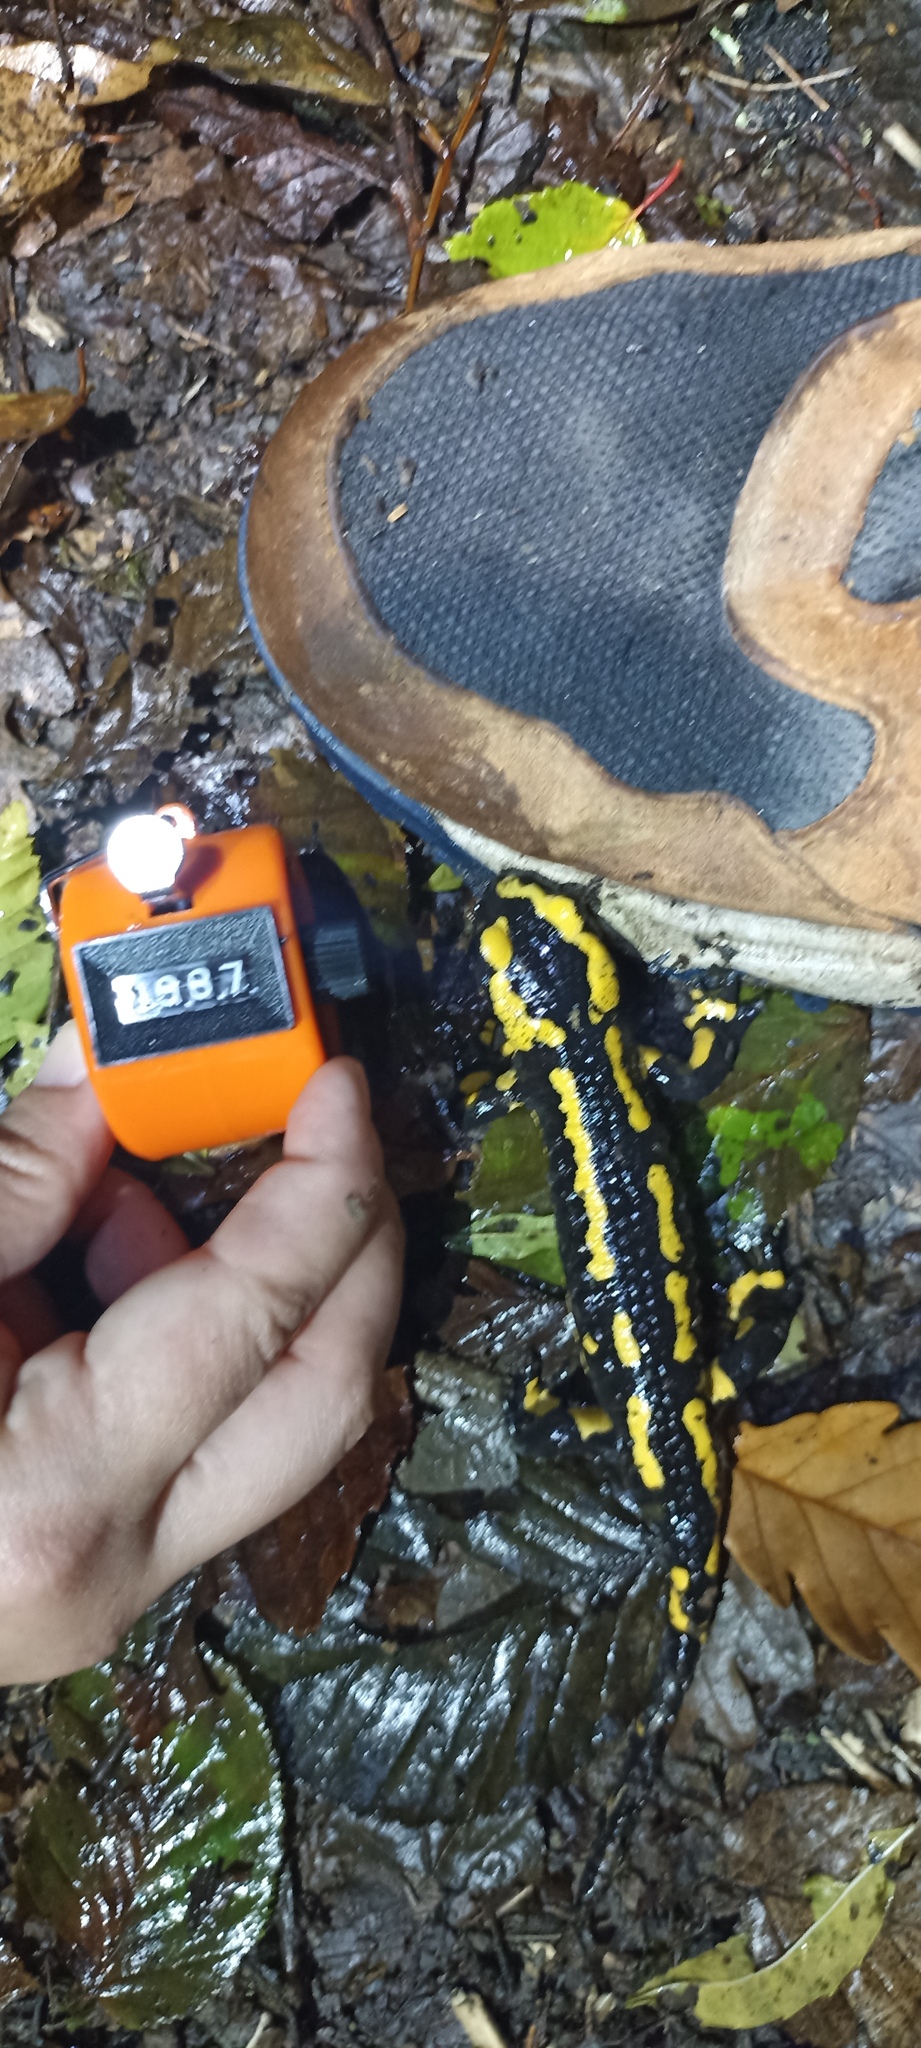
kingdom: Animalia
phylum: Chordata
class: Amphibia
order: Caudata
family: Salamandridae
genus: Salamandra
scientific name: Salamandra salamandra
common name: Fire salamander
